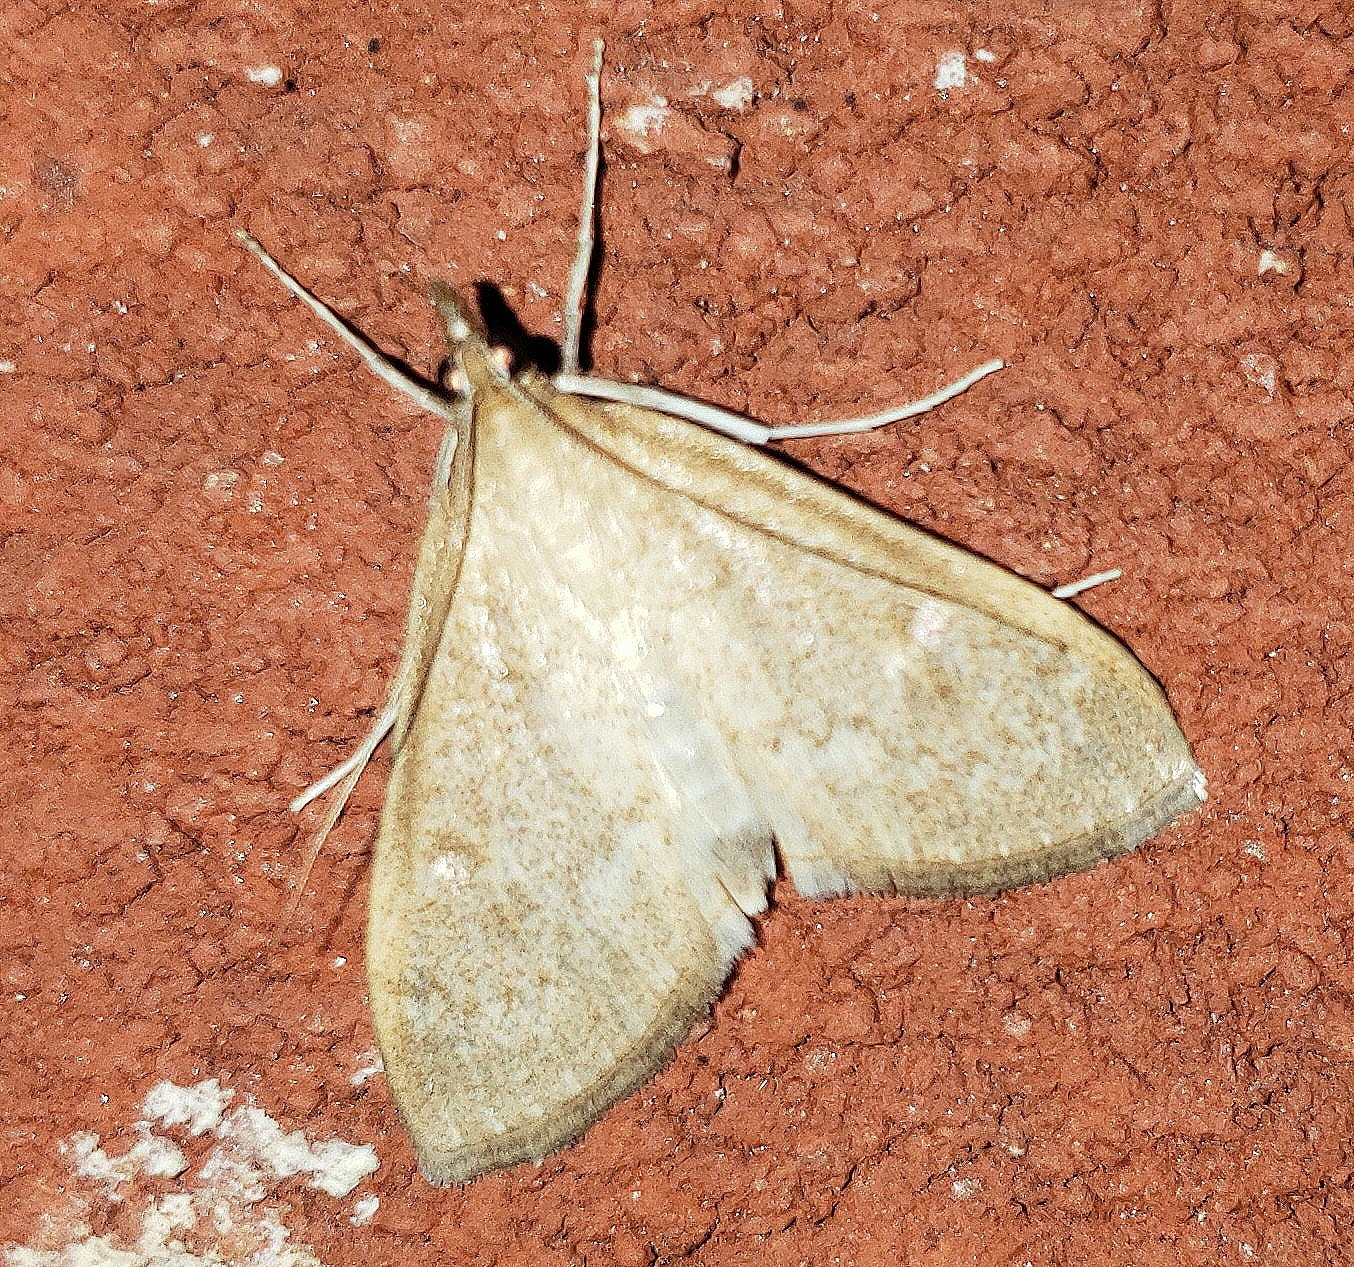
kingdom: Animalia
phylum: Arthropoda
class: Insecta
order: Lepidoptera
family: Crambidae
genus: Saucrobotys
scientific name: Saucrobotys futilalis
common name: Dogbane saucrobotys moth
